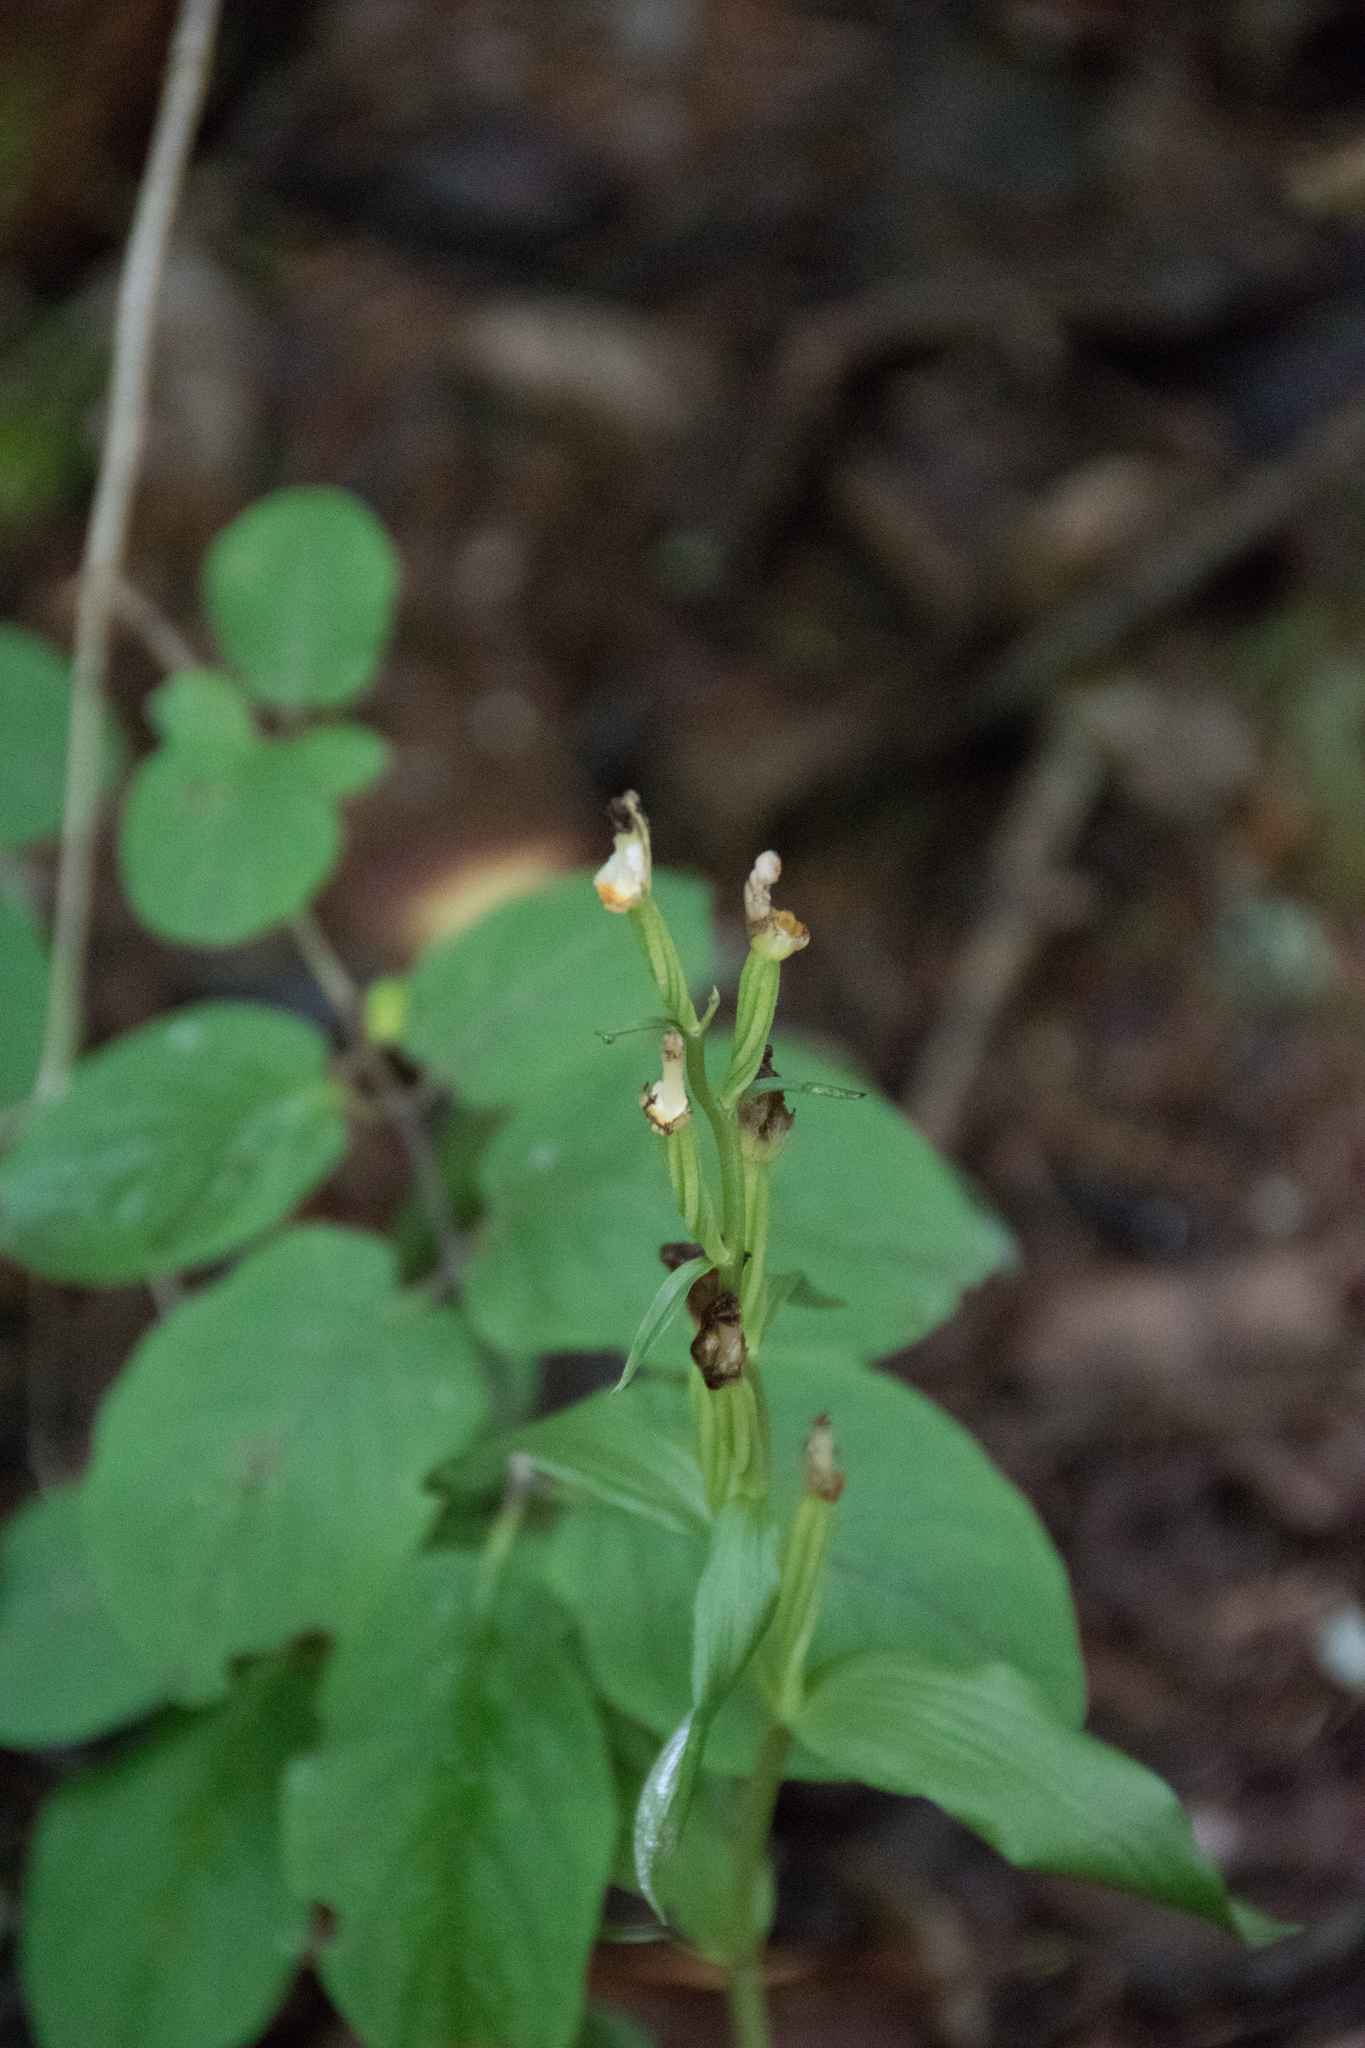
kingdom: Plantae
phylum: Tracheophyta
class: Liliopsida
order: Asparagales
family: Orchidaceae
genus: Cephalanthera
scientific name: Cephalanthera damasonium
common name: White helleborine
